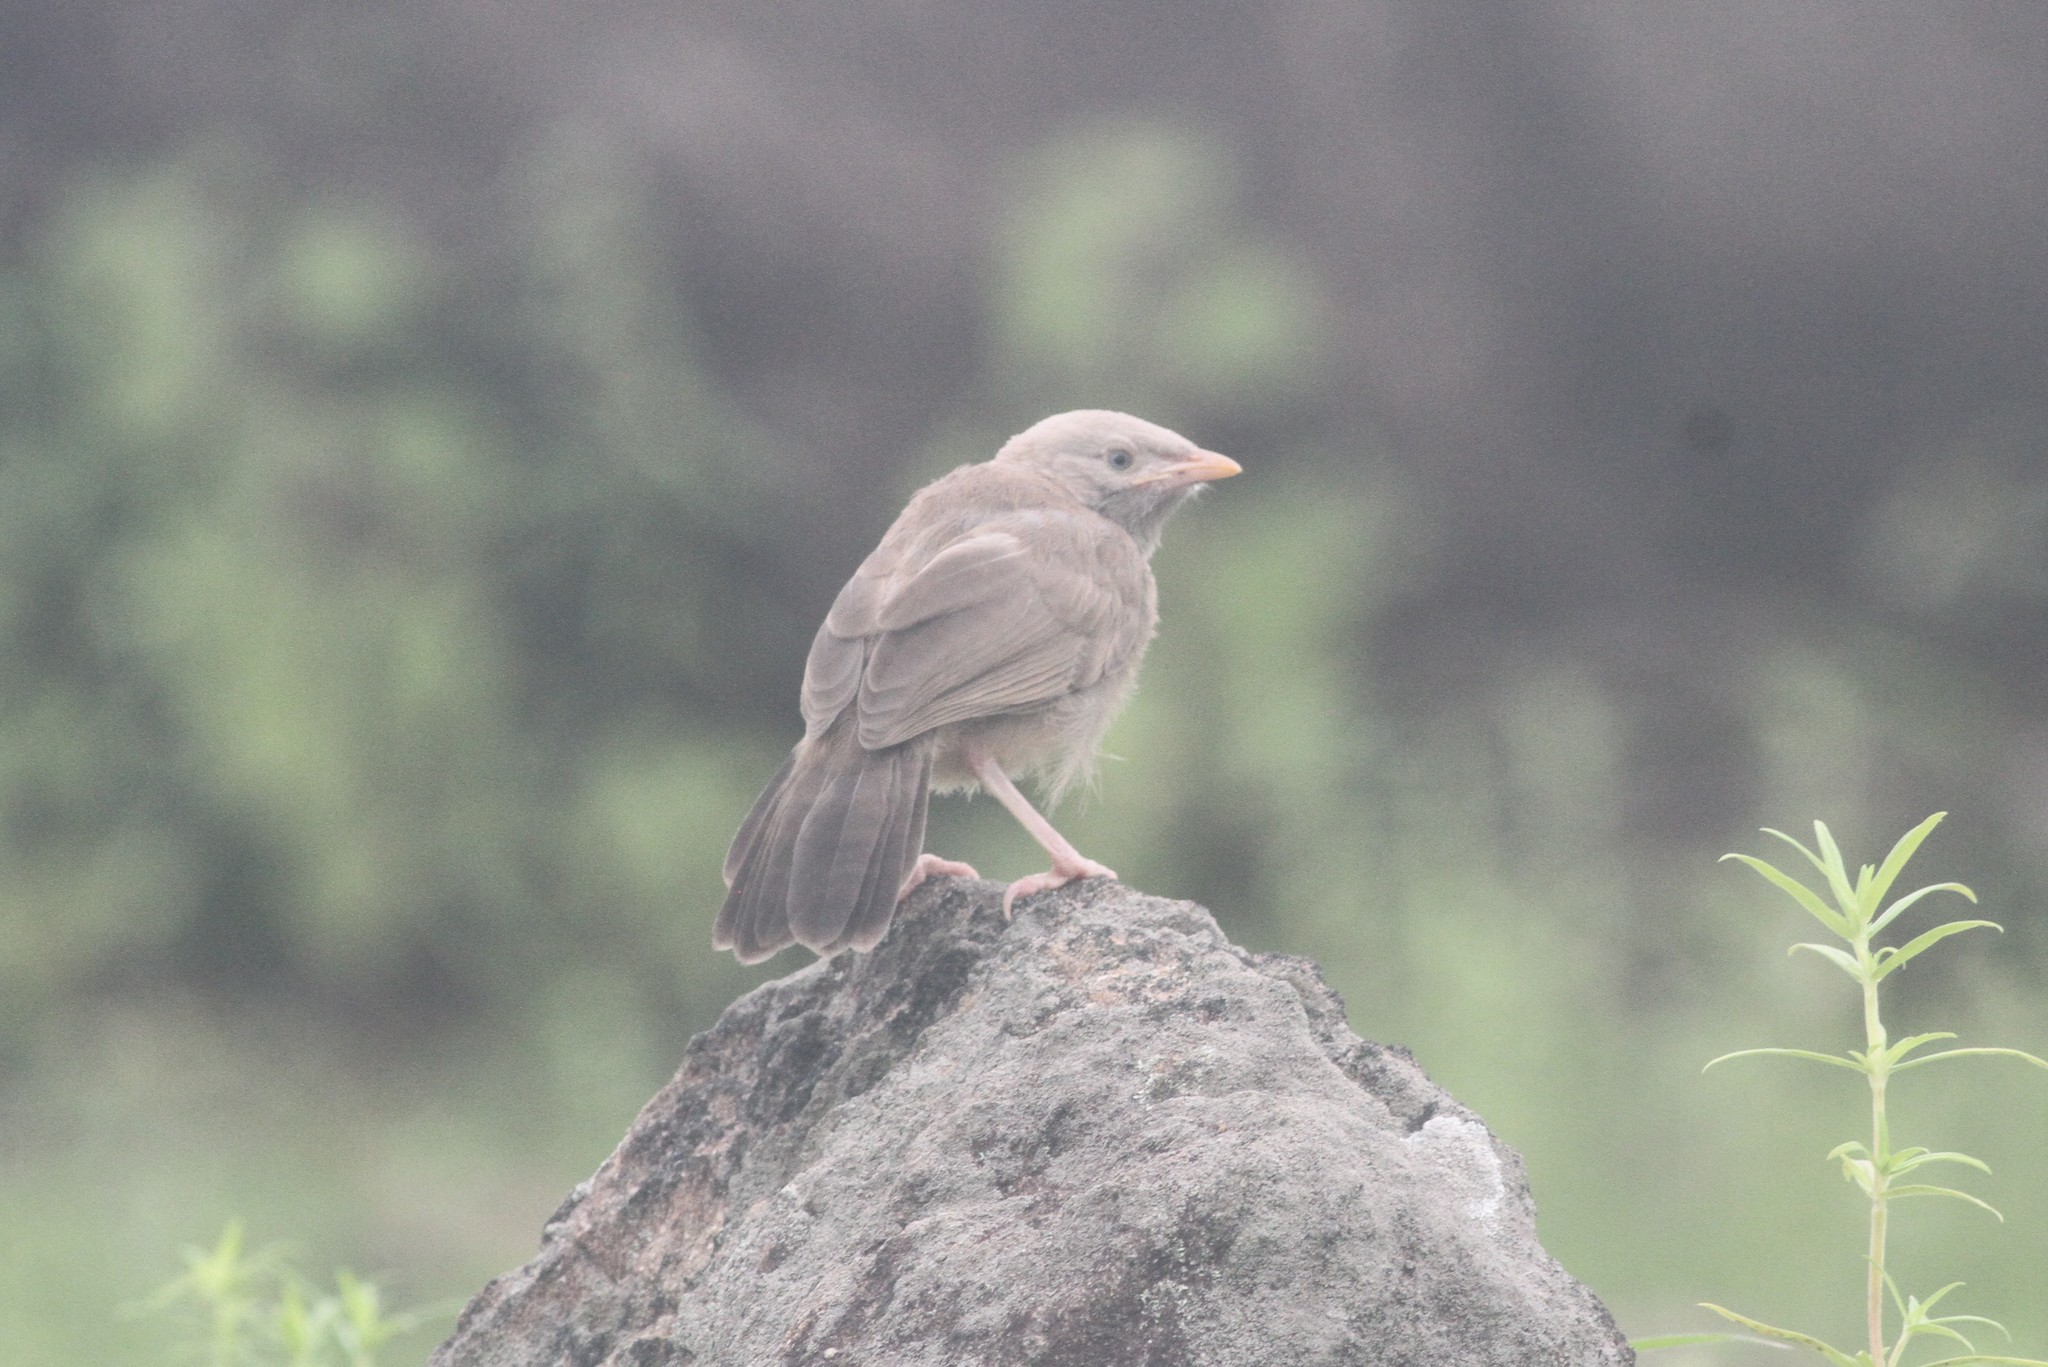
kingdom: Animalia
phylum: Chordata
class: Aves
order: Passeriformes
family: Leiothrichidae
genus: Turdoides
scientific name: Turdoides affinis
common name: Yellow-billed babbler
